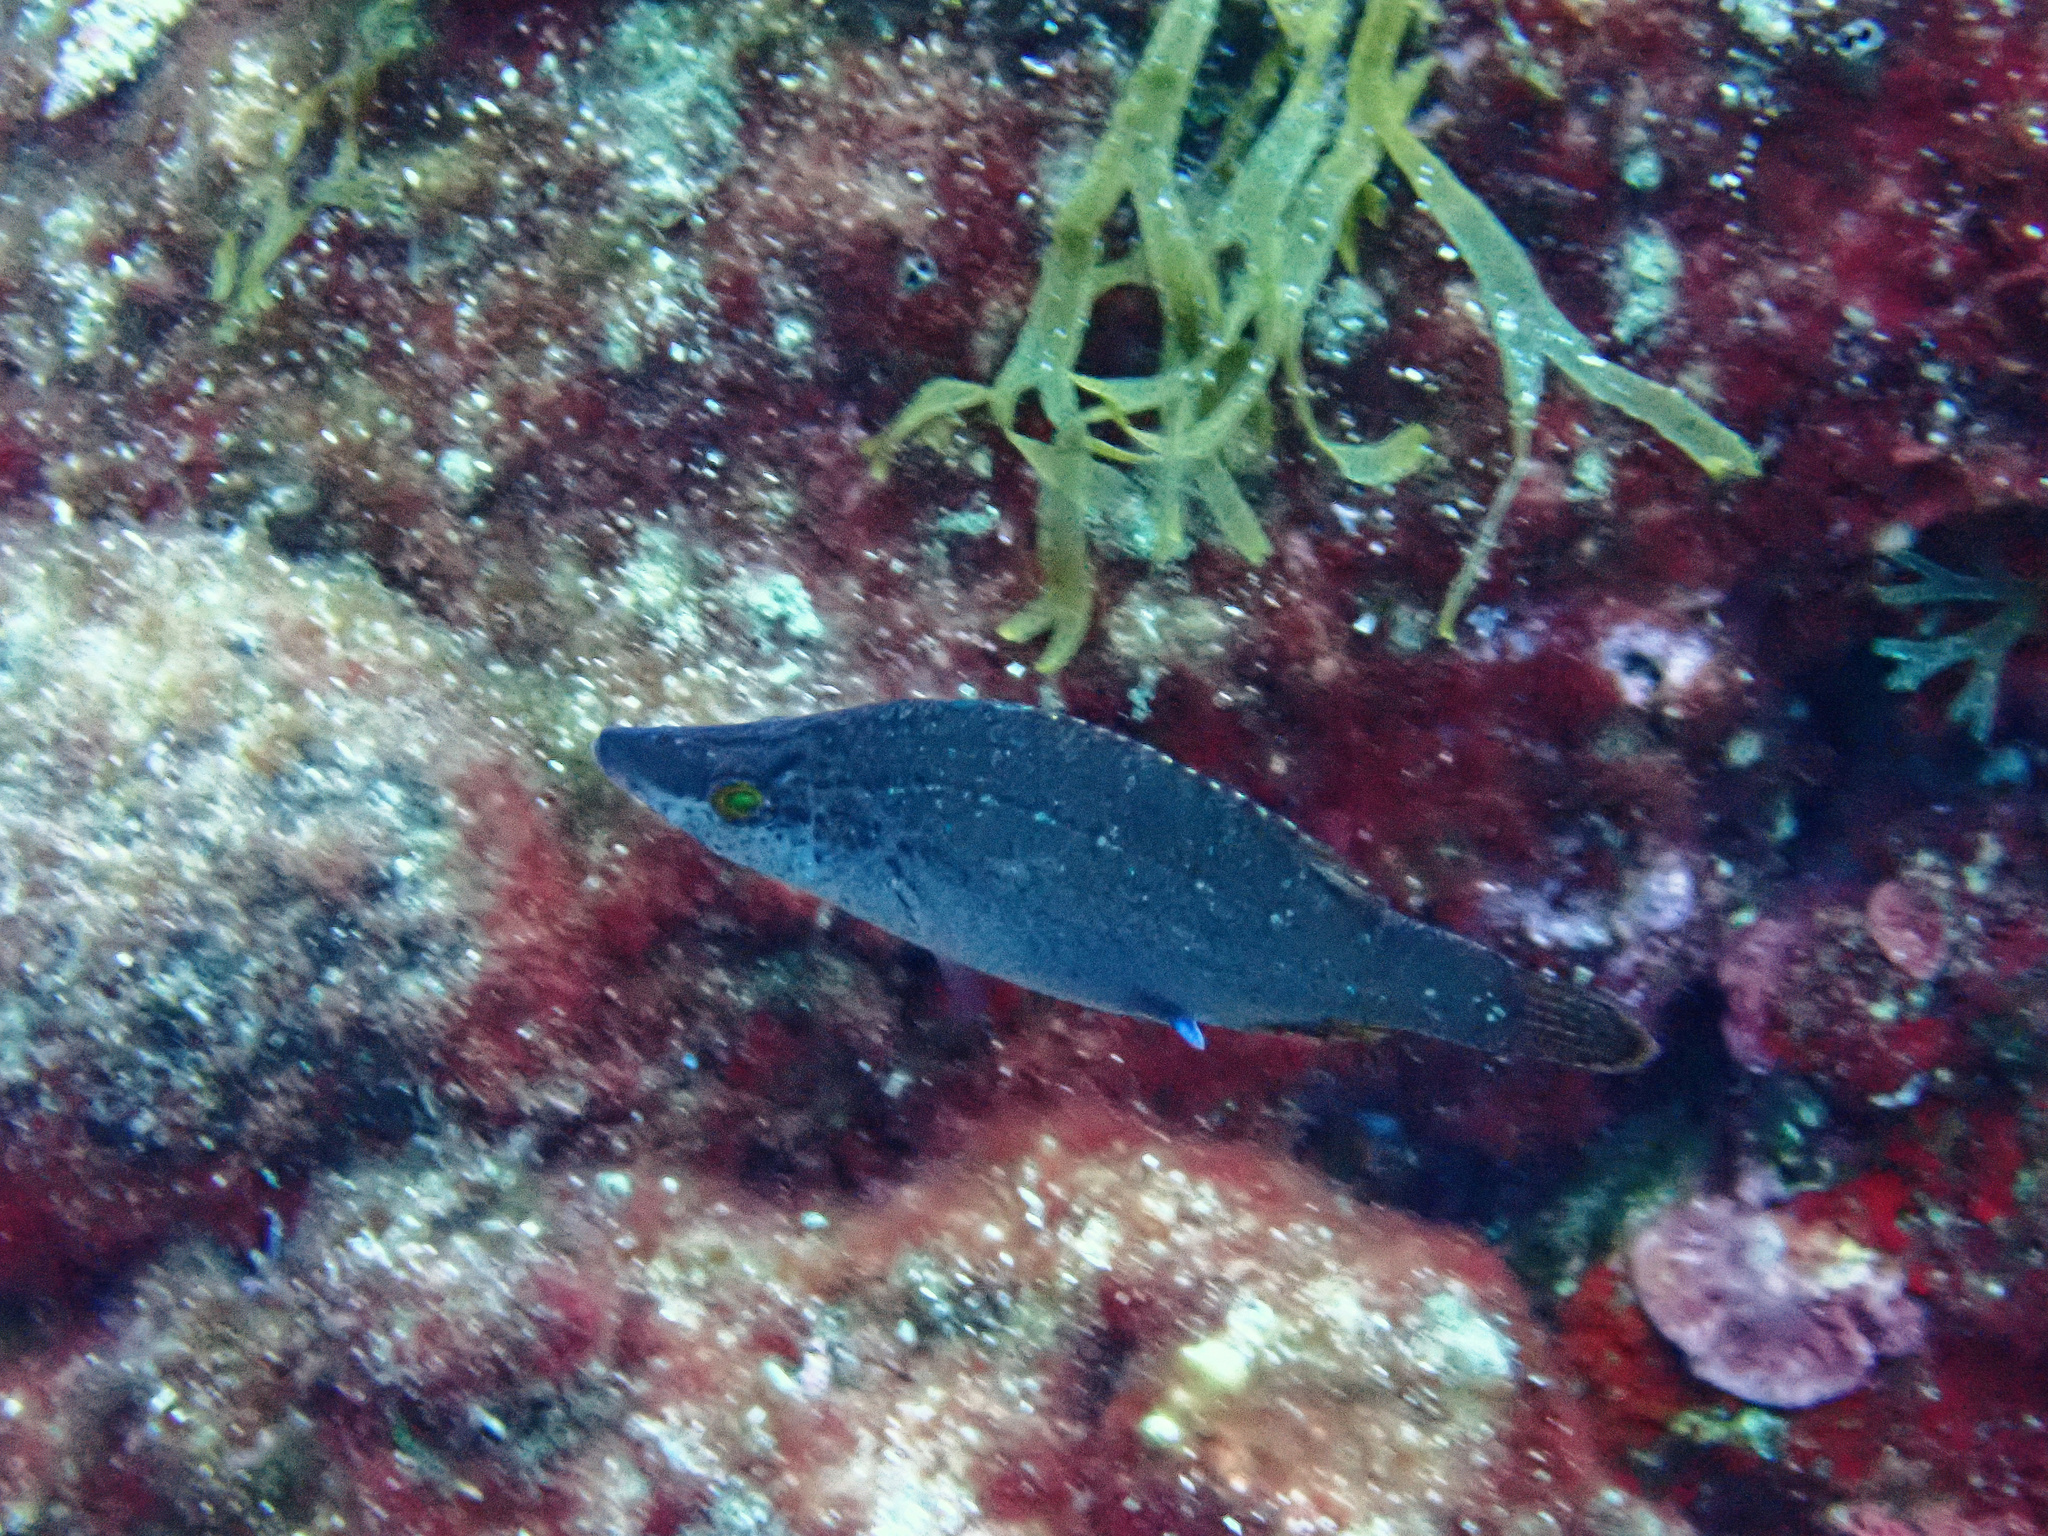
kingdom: Animalia
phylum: Chordata
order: Perciformes
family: Labridae
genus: Symphodus
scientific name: Symphodus rostratus
